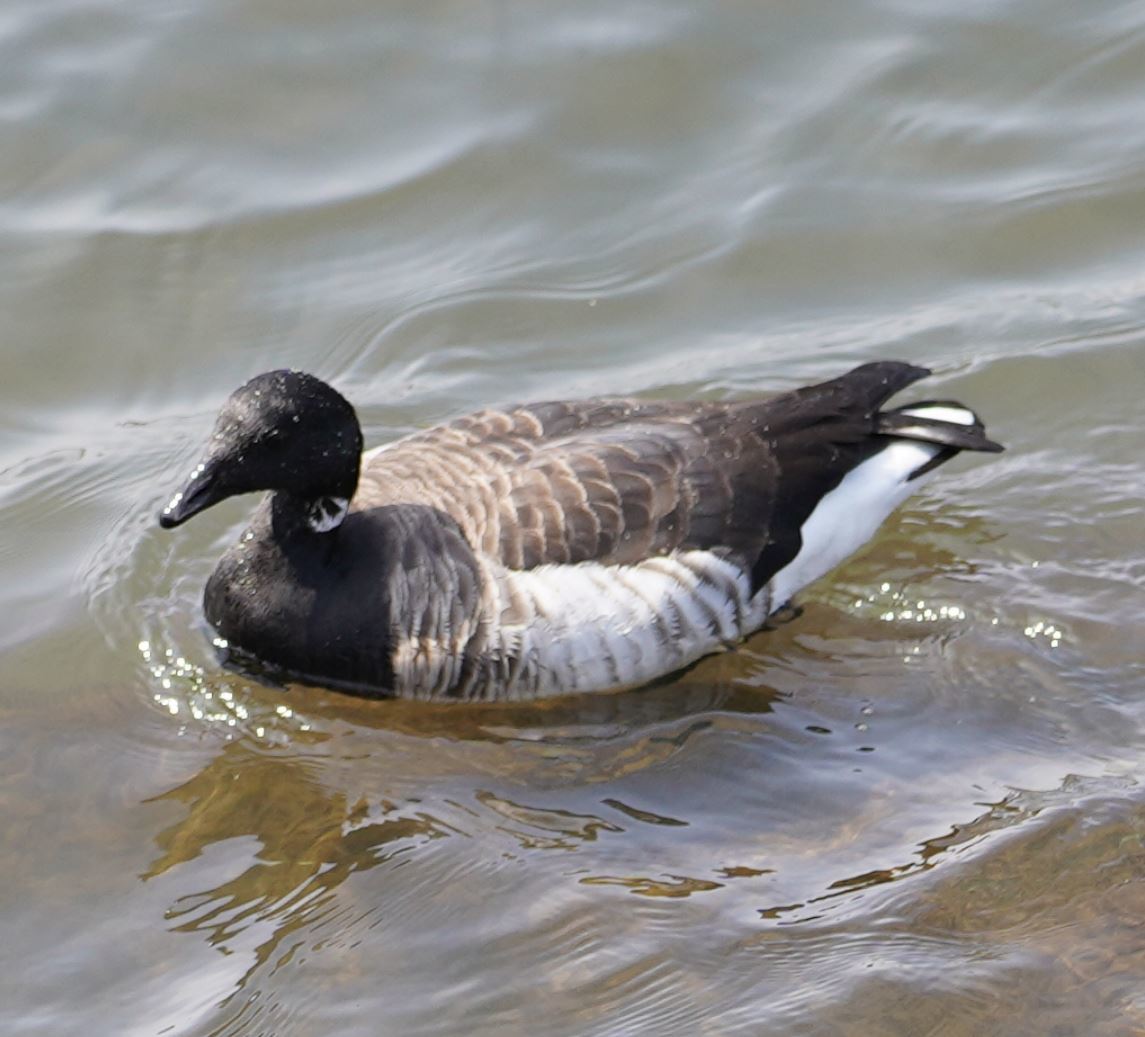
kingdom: Animalia
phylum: Chordata
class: Aves
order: Anseriformes
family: Anatidae
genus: Branta
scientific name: Branta bernicla
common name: Brant goose
